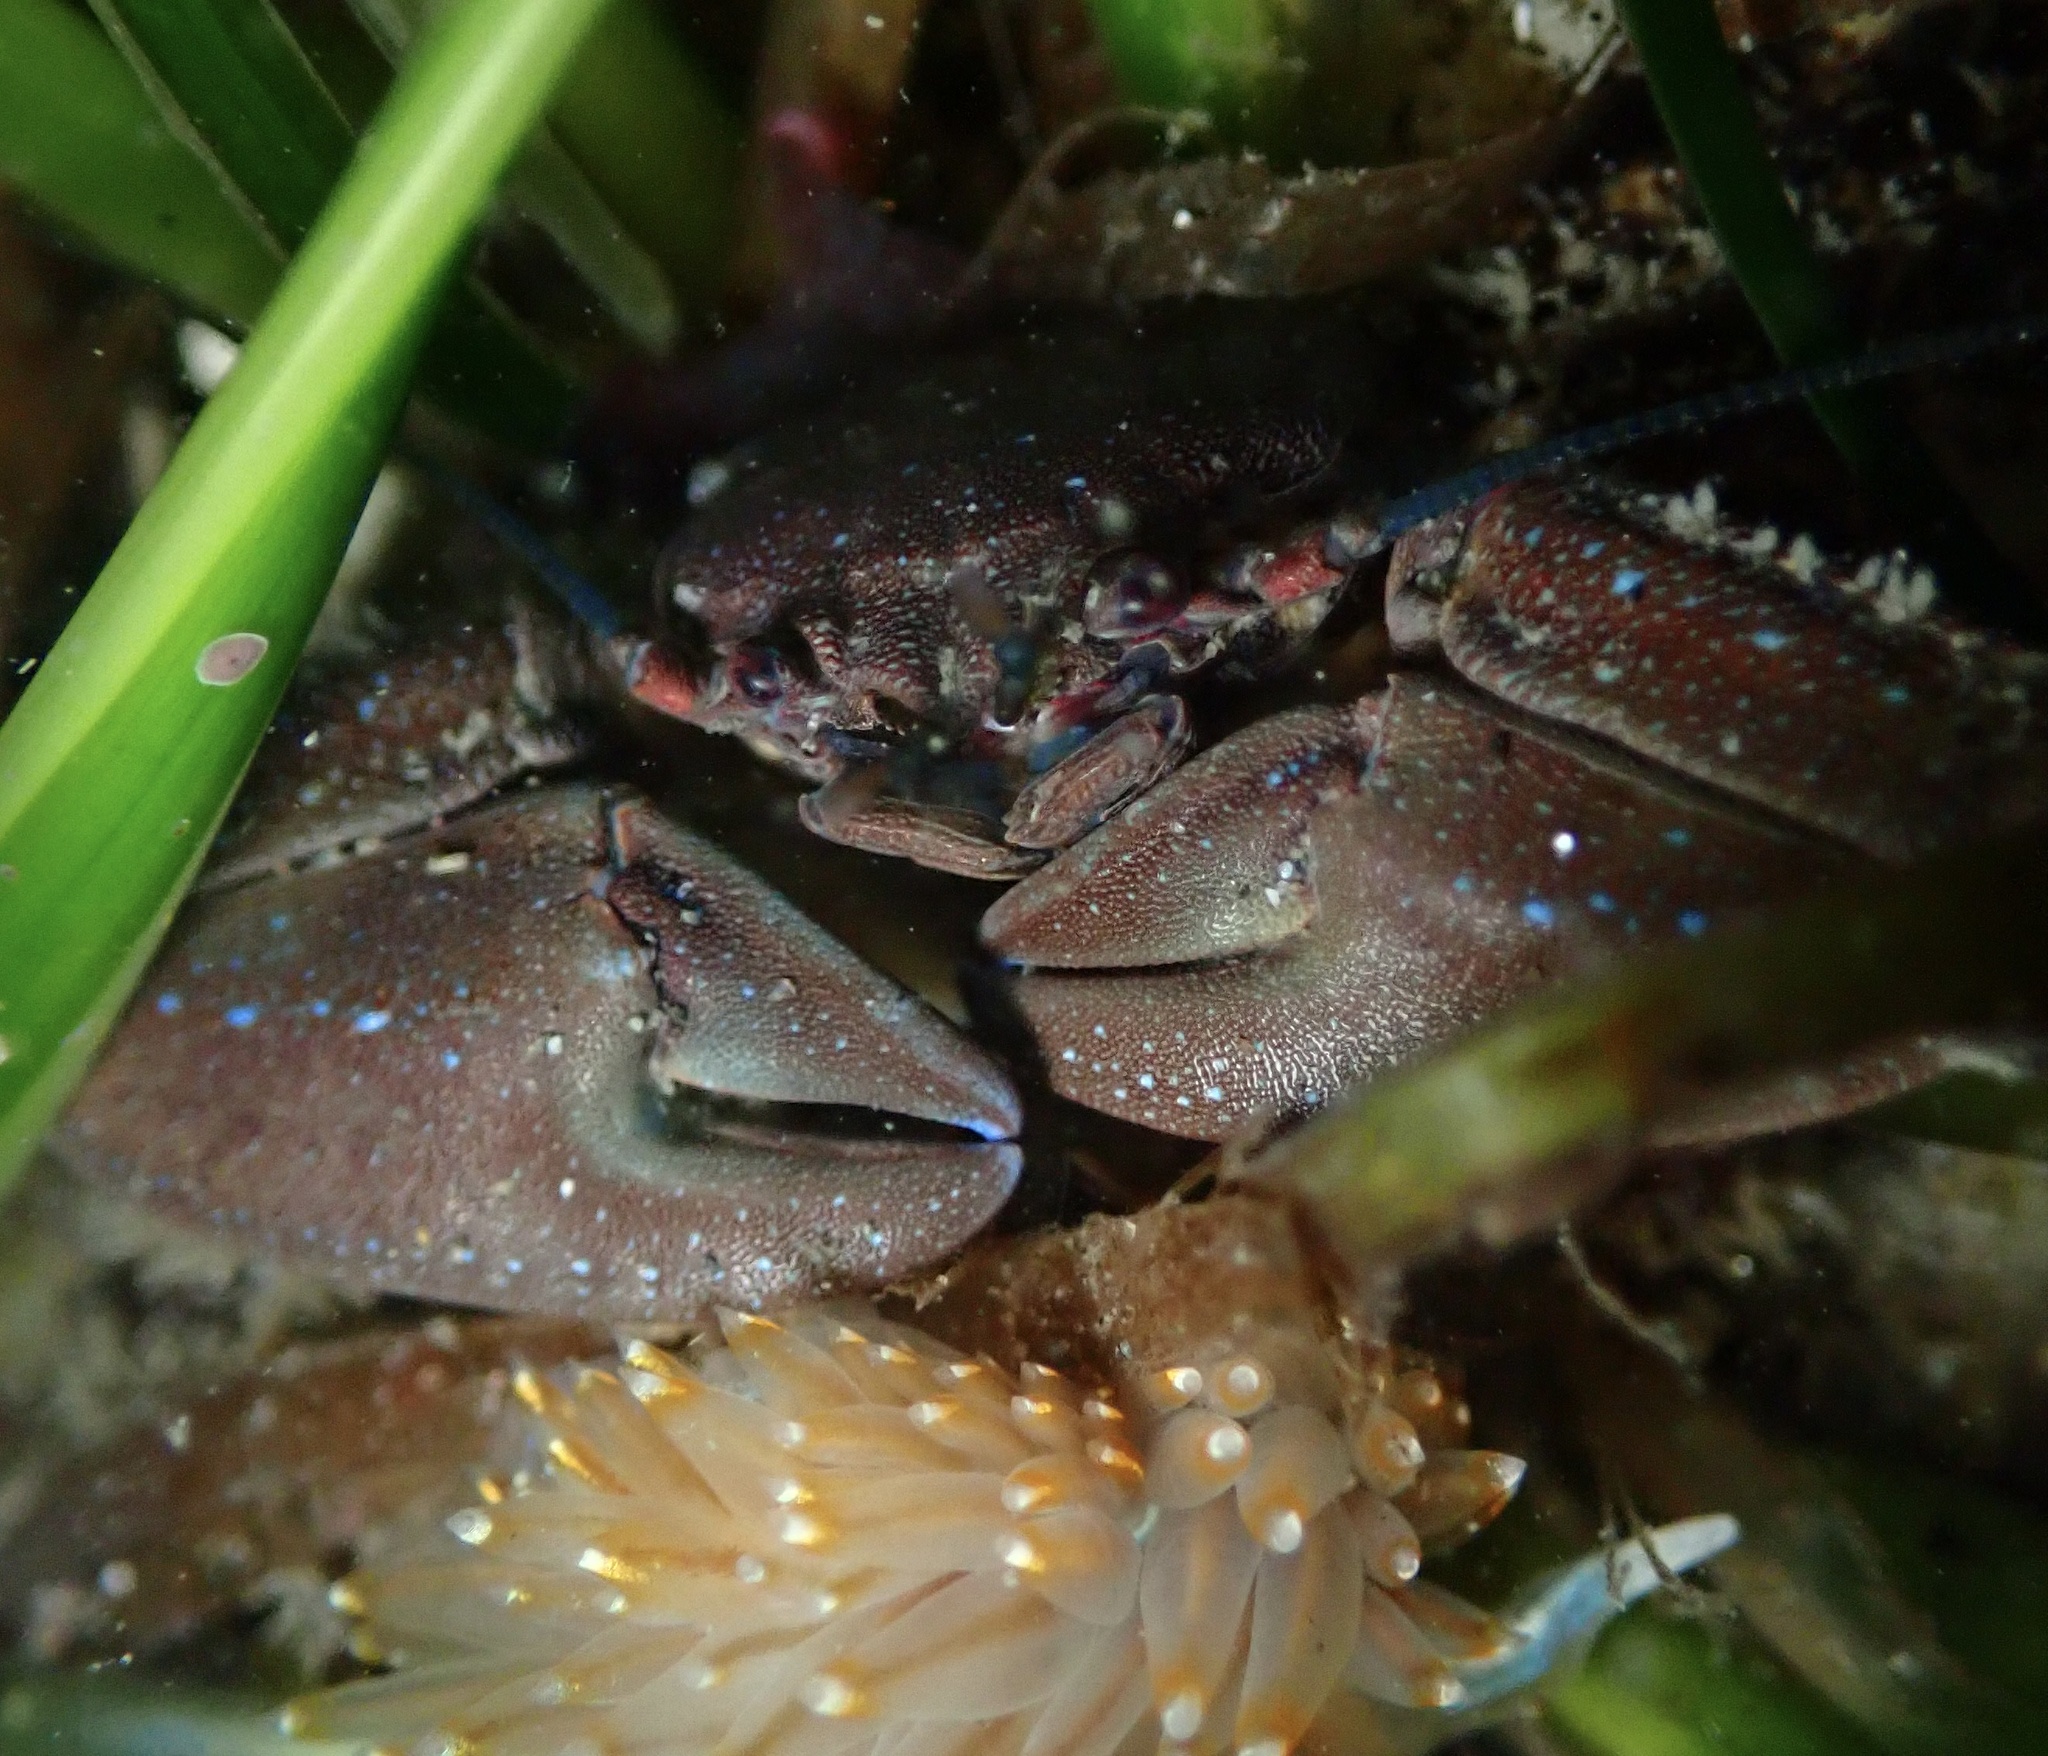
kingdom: Animalia
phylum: Arthropoda
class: Malacostraca
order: Decapoda
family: Porcellanidae
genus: Petrolisthes
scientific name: Petrolisthes manimaculis
